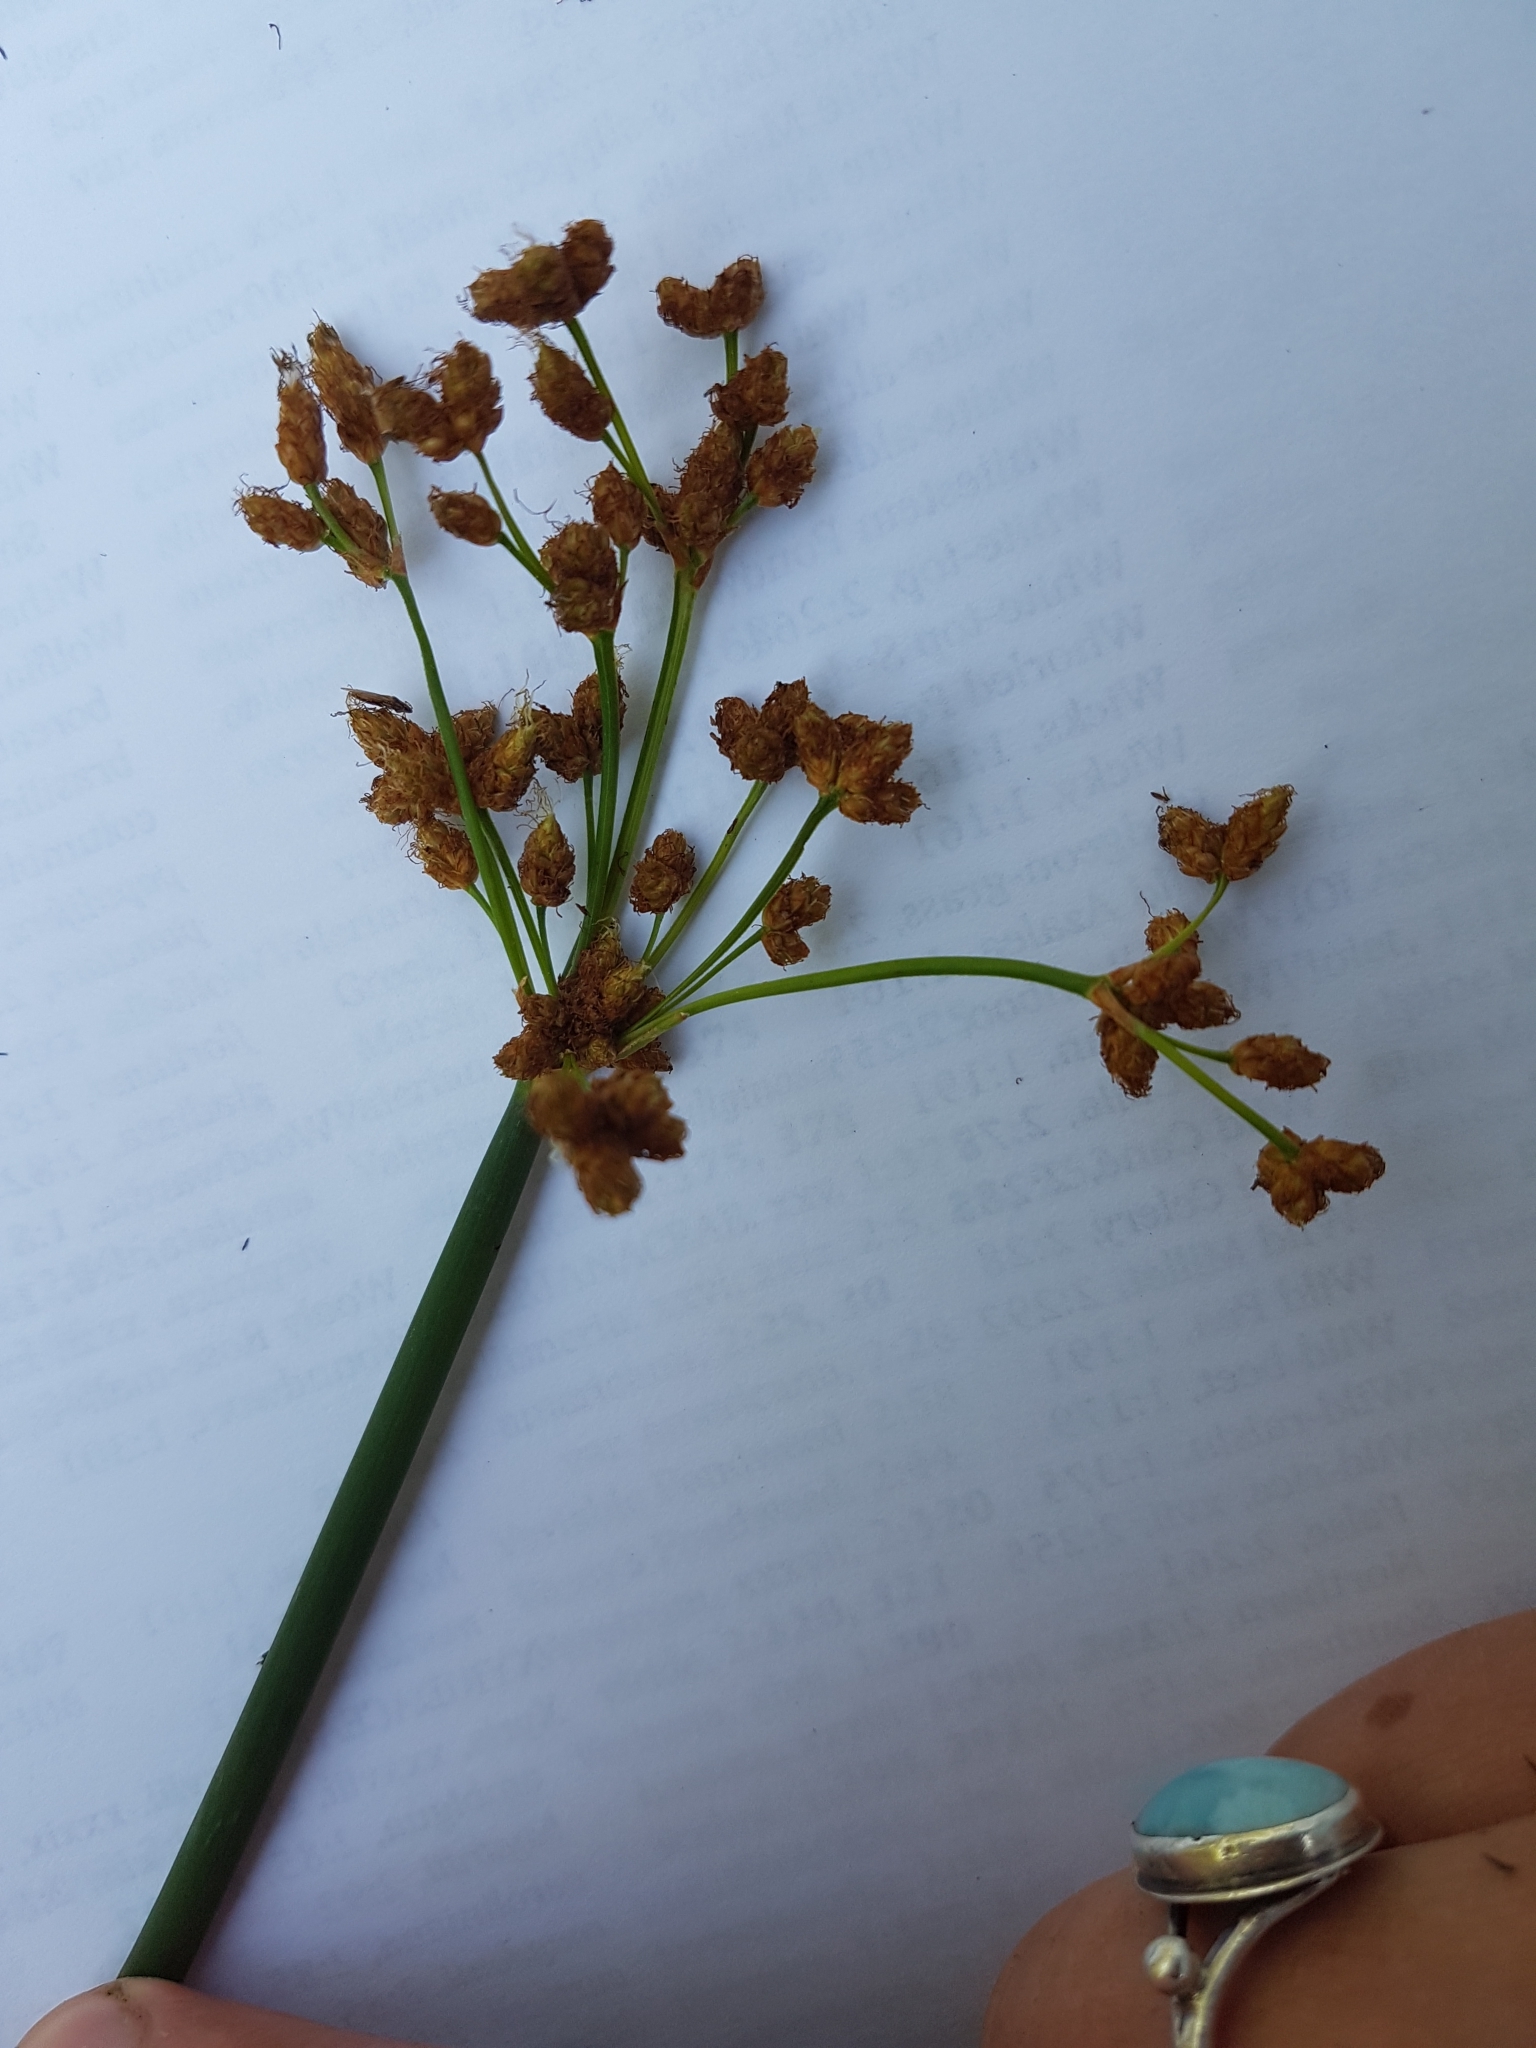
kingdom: Plantae
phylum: Tracheophyta
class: Liliopsida
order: Poales
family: Cyperaceae
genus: Schoenoplectus
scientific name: Schoenoplectus tabernaemontani
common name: Grey club-rush
